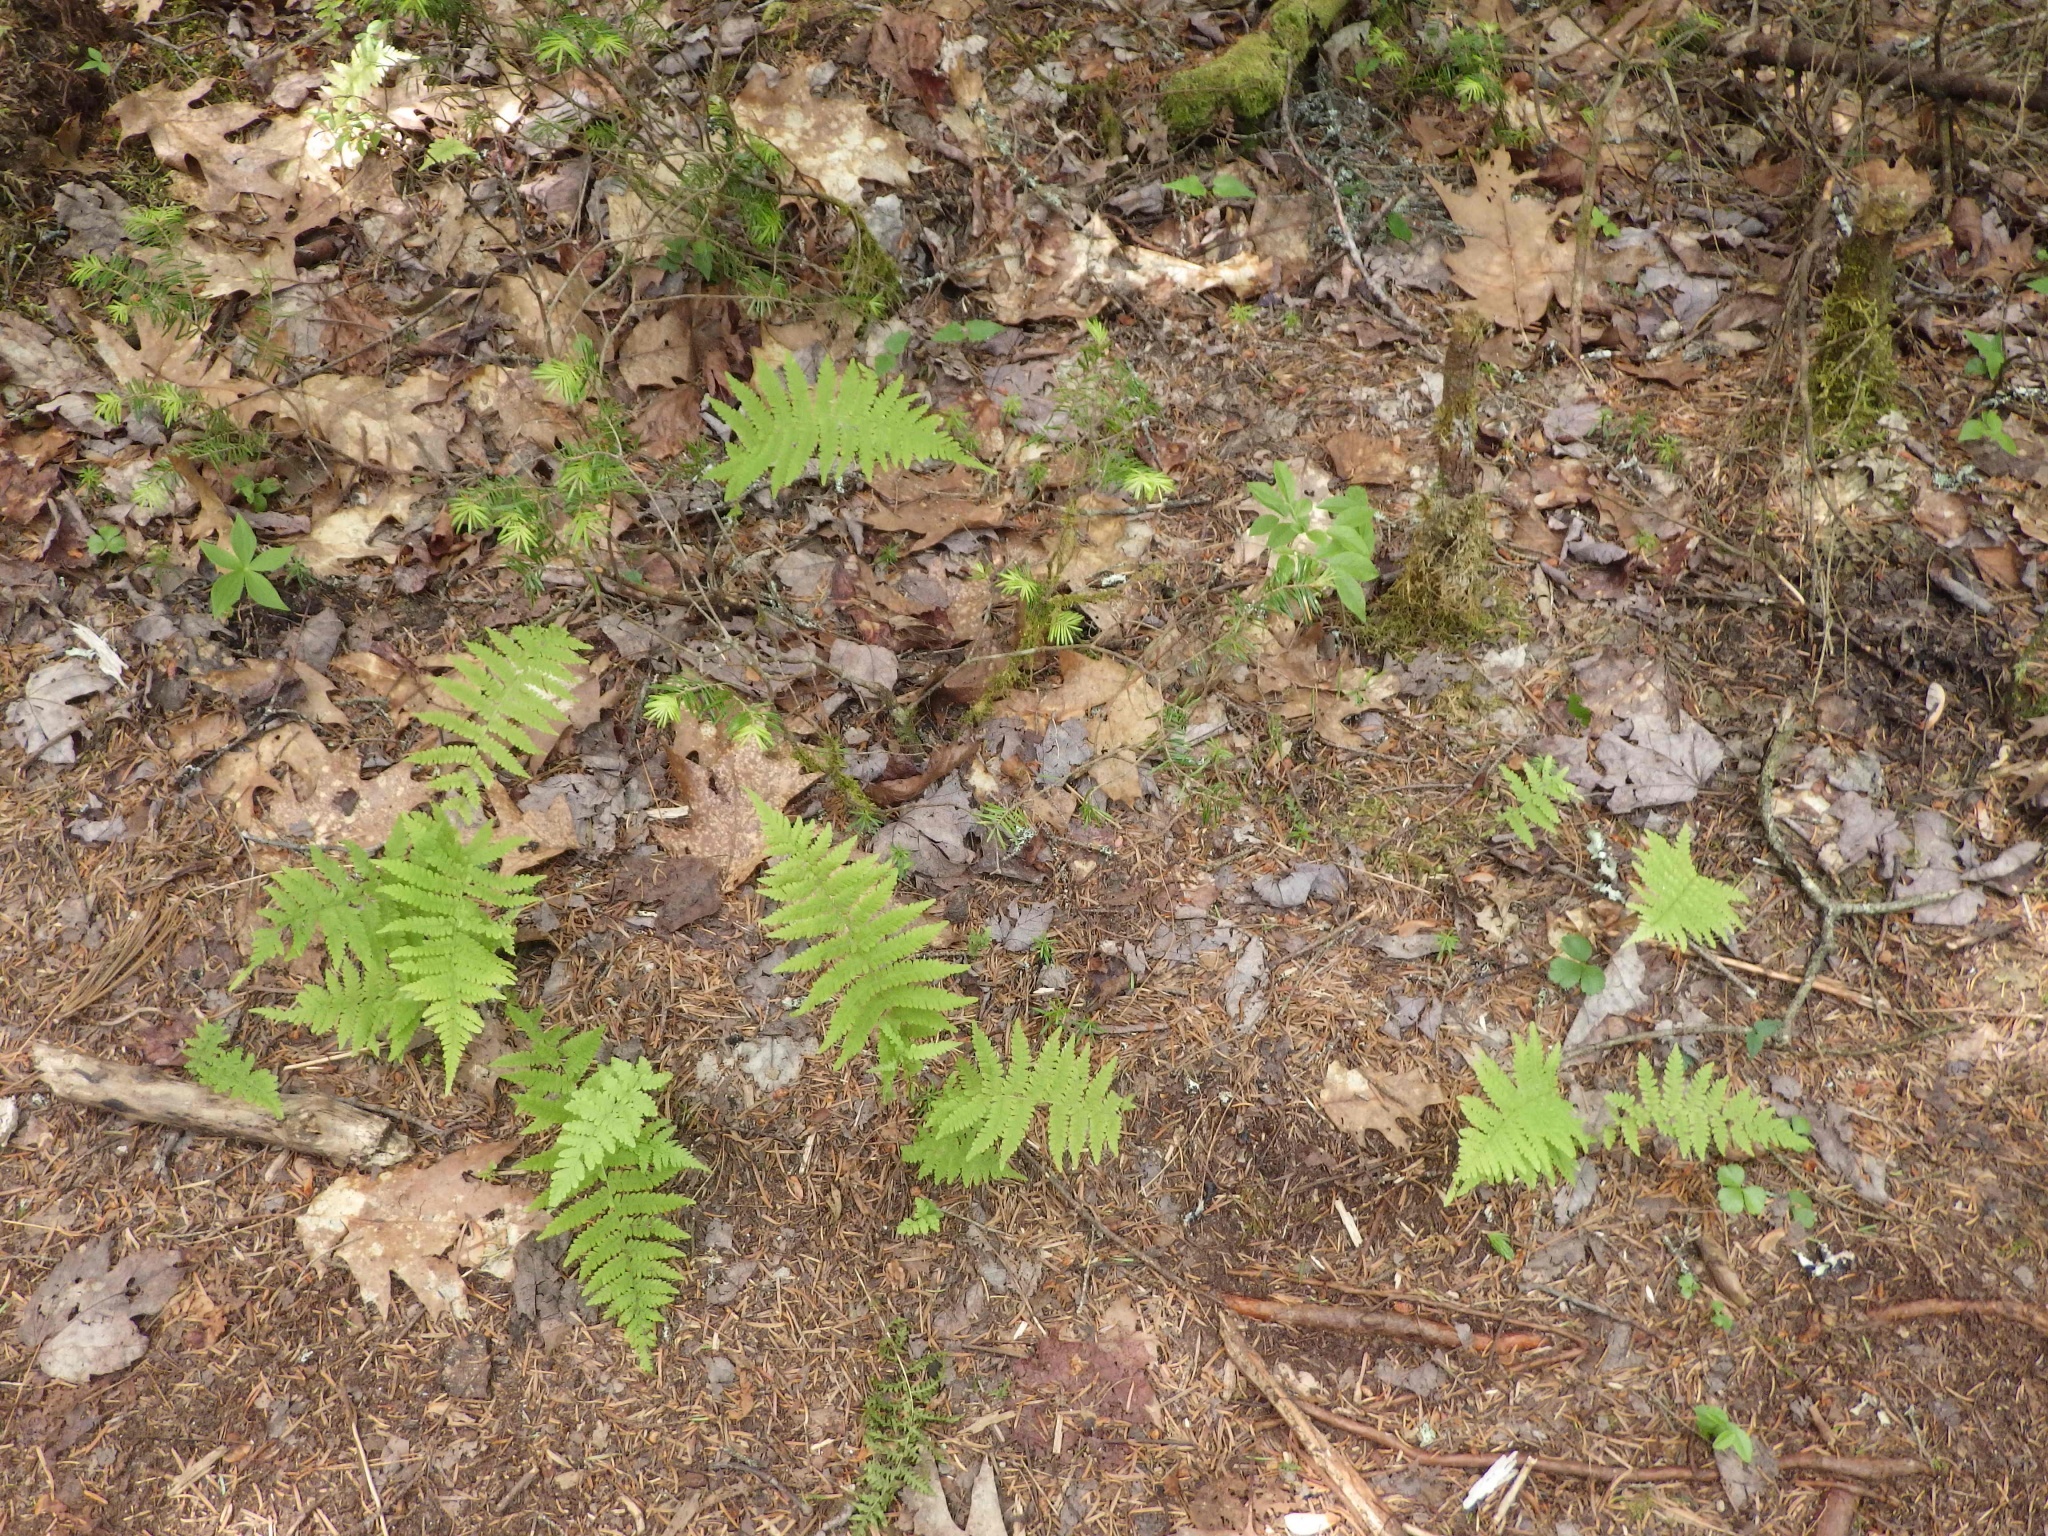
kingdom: Plantae
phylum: Tracheophyta
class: Polypodiopsida
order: Polypodiales
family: Thelypteridaceae
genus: Amauropelta
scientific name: Amauropelta noveboracensis
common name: New york fern
